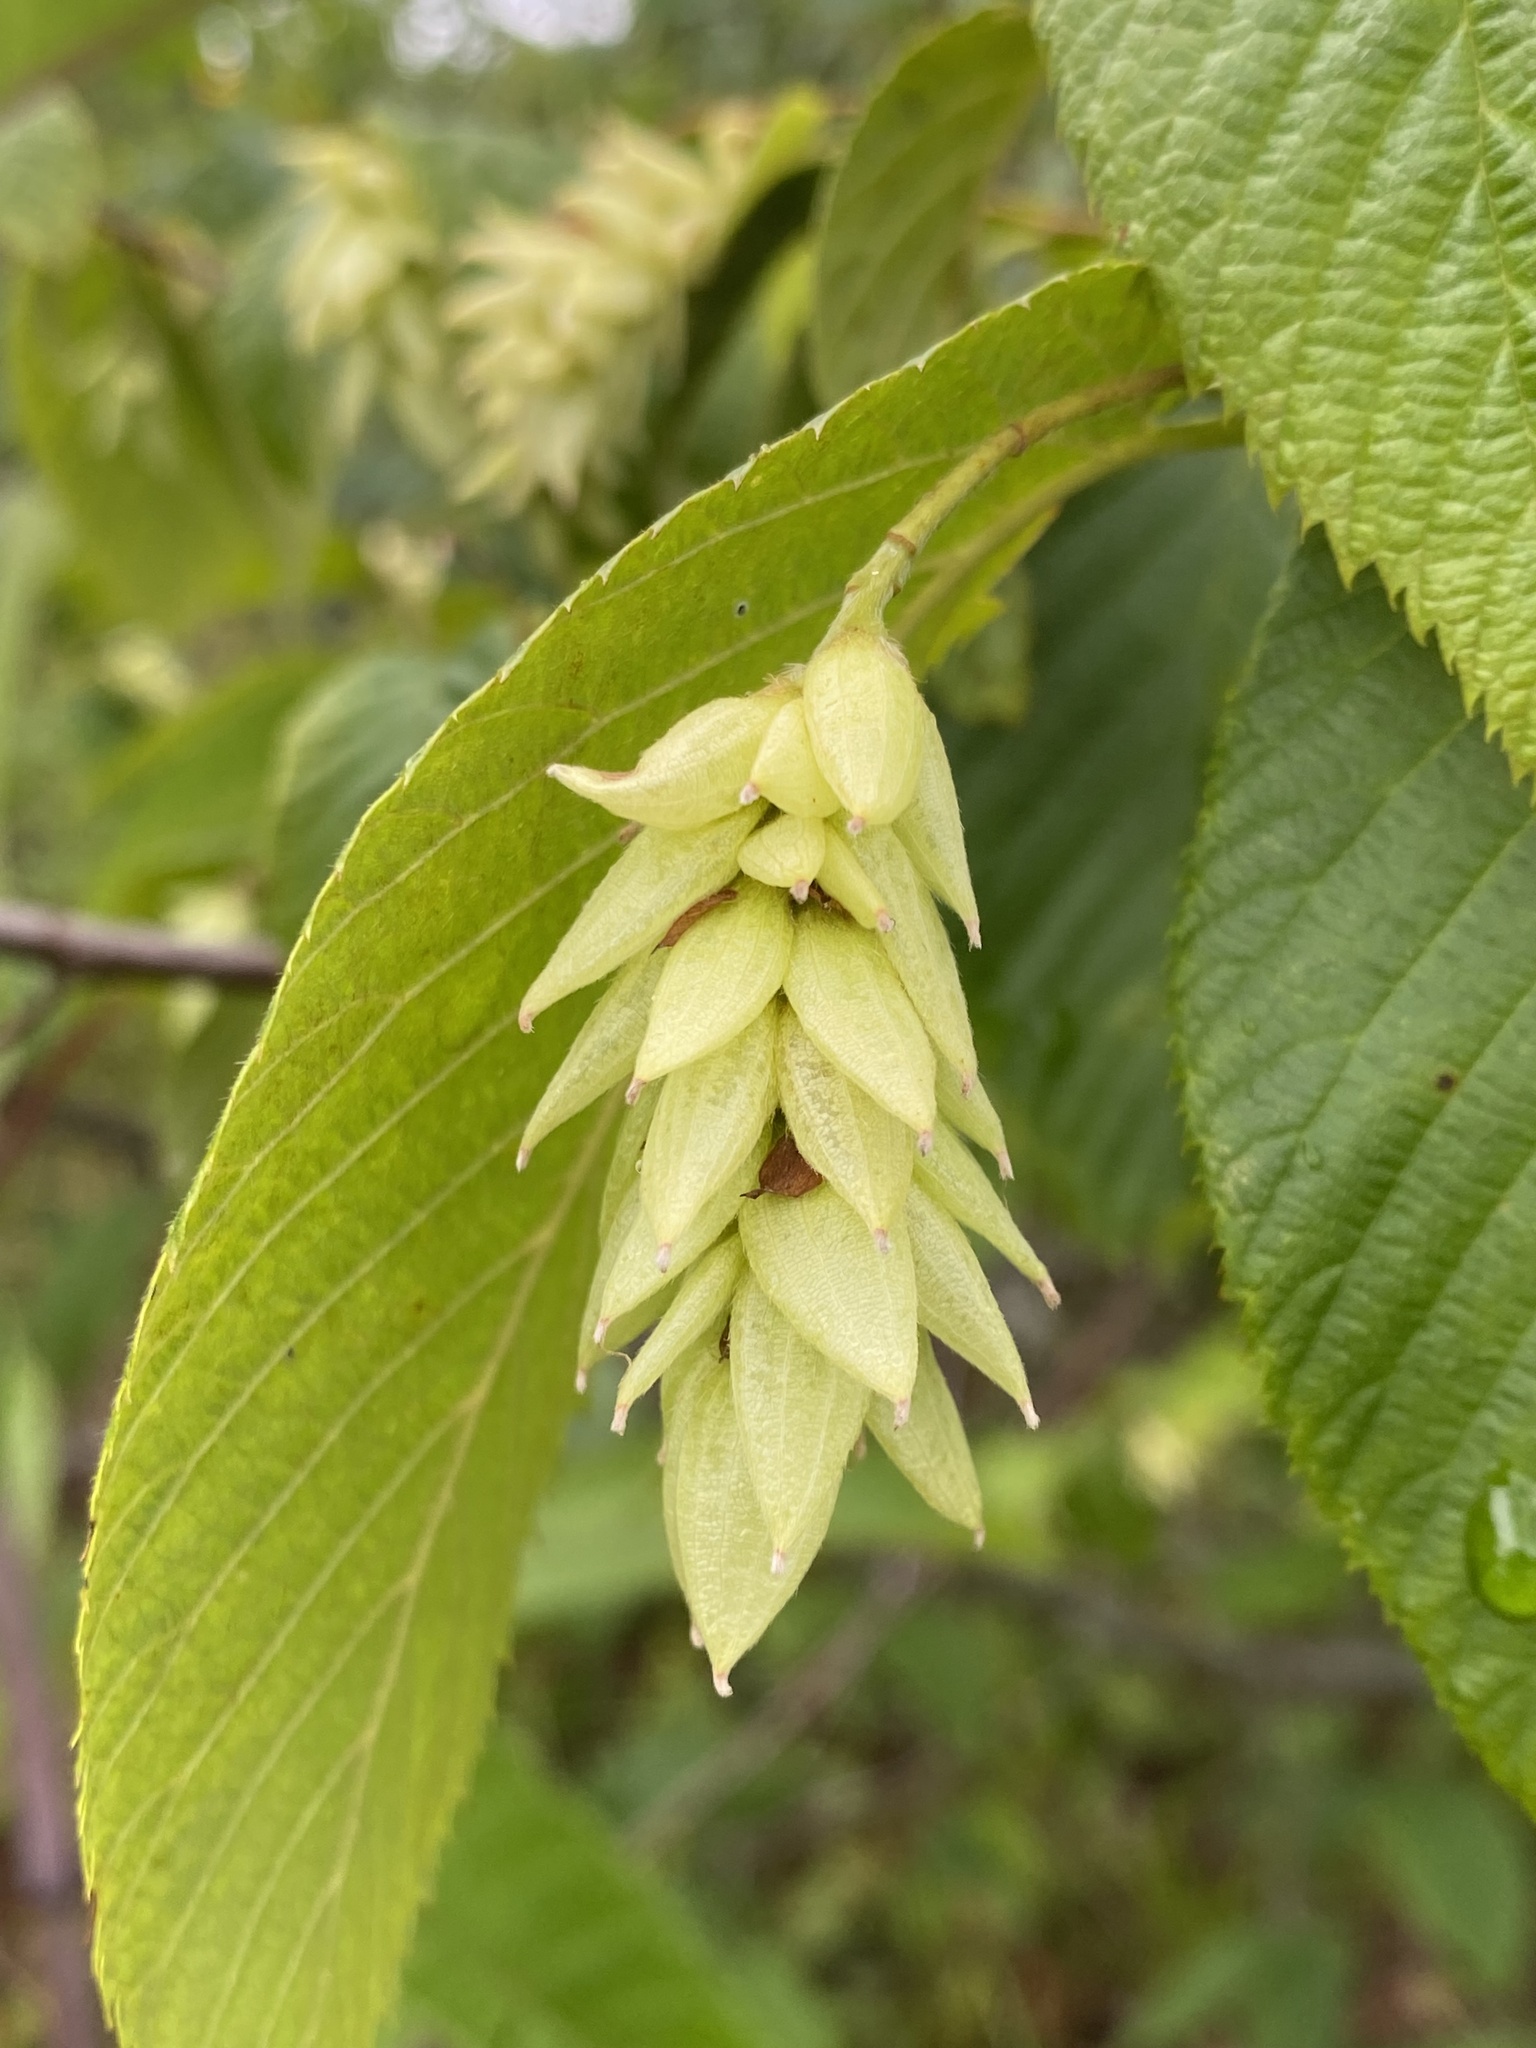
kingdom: Plantae
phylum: Tracheophyta
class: Magnoliopsida
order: Fagales
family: Betulaceae
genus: Ostrya
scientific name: Ostrya virginiana
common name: Ironwood
